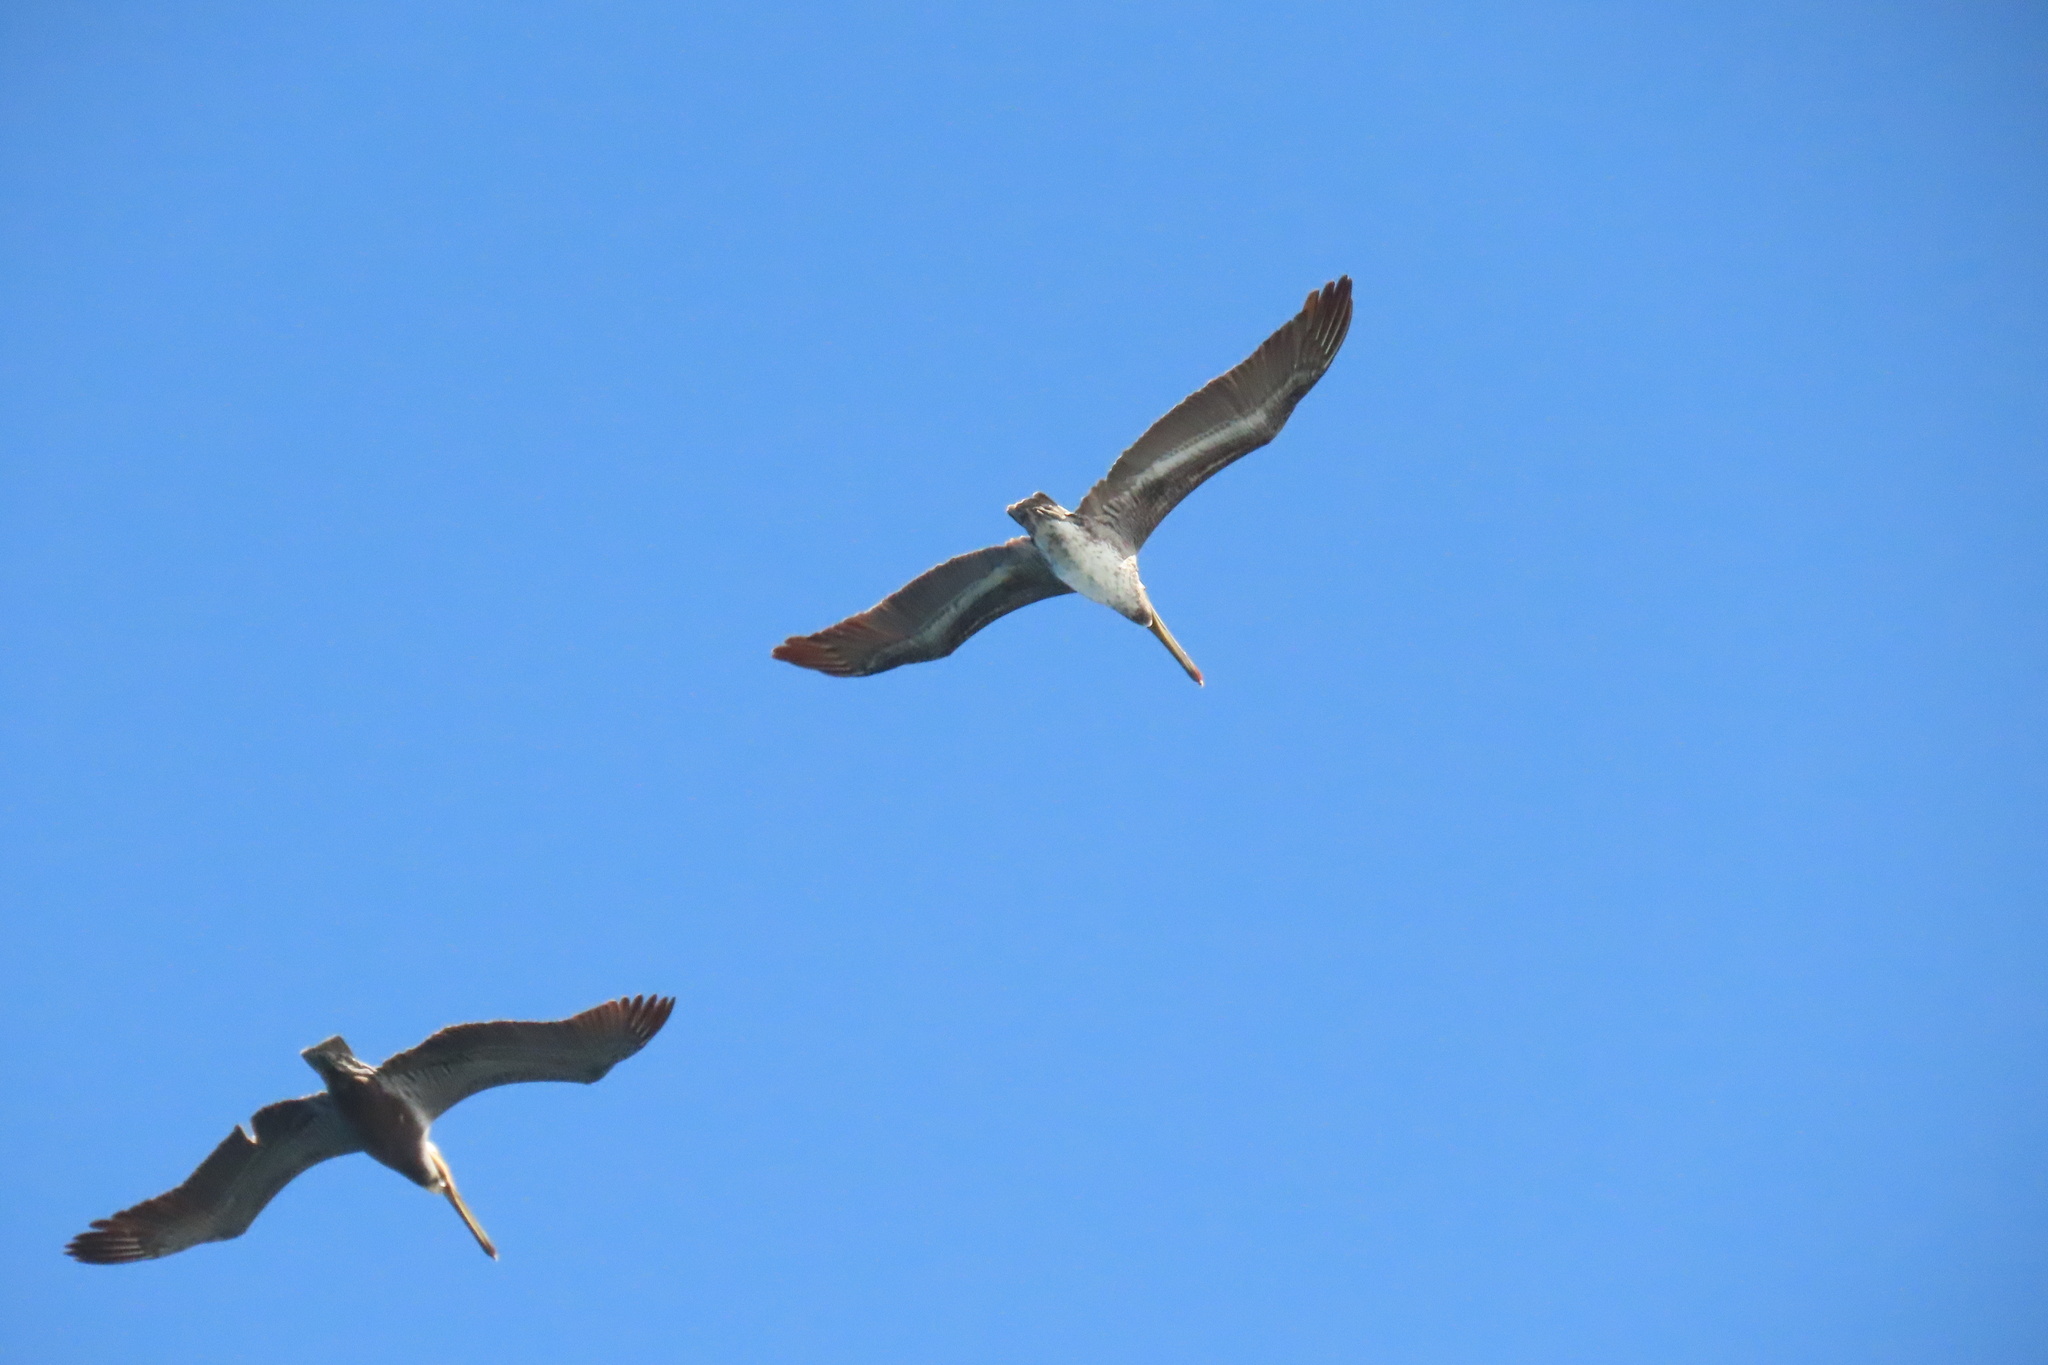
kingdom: Animalia
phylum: Chordata
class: Aves
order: Pelecaniformes
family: Pelecanidae
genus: Pelecanus
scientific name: Pelecanus occidentalis
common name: Brown pelican
